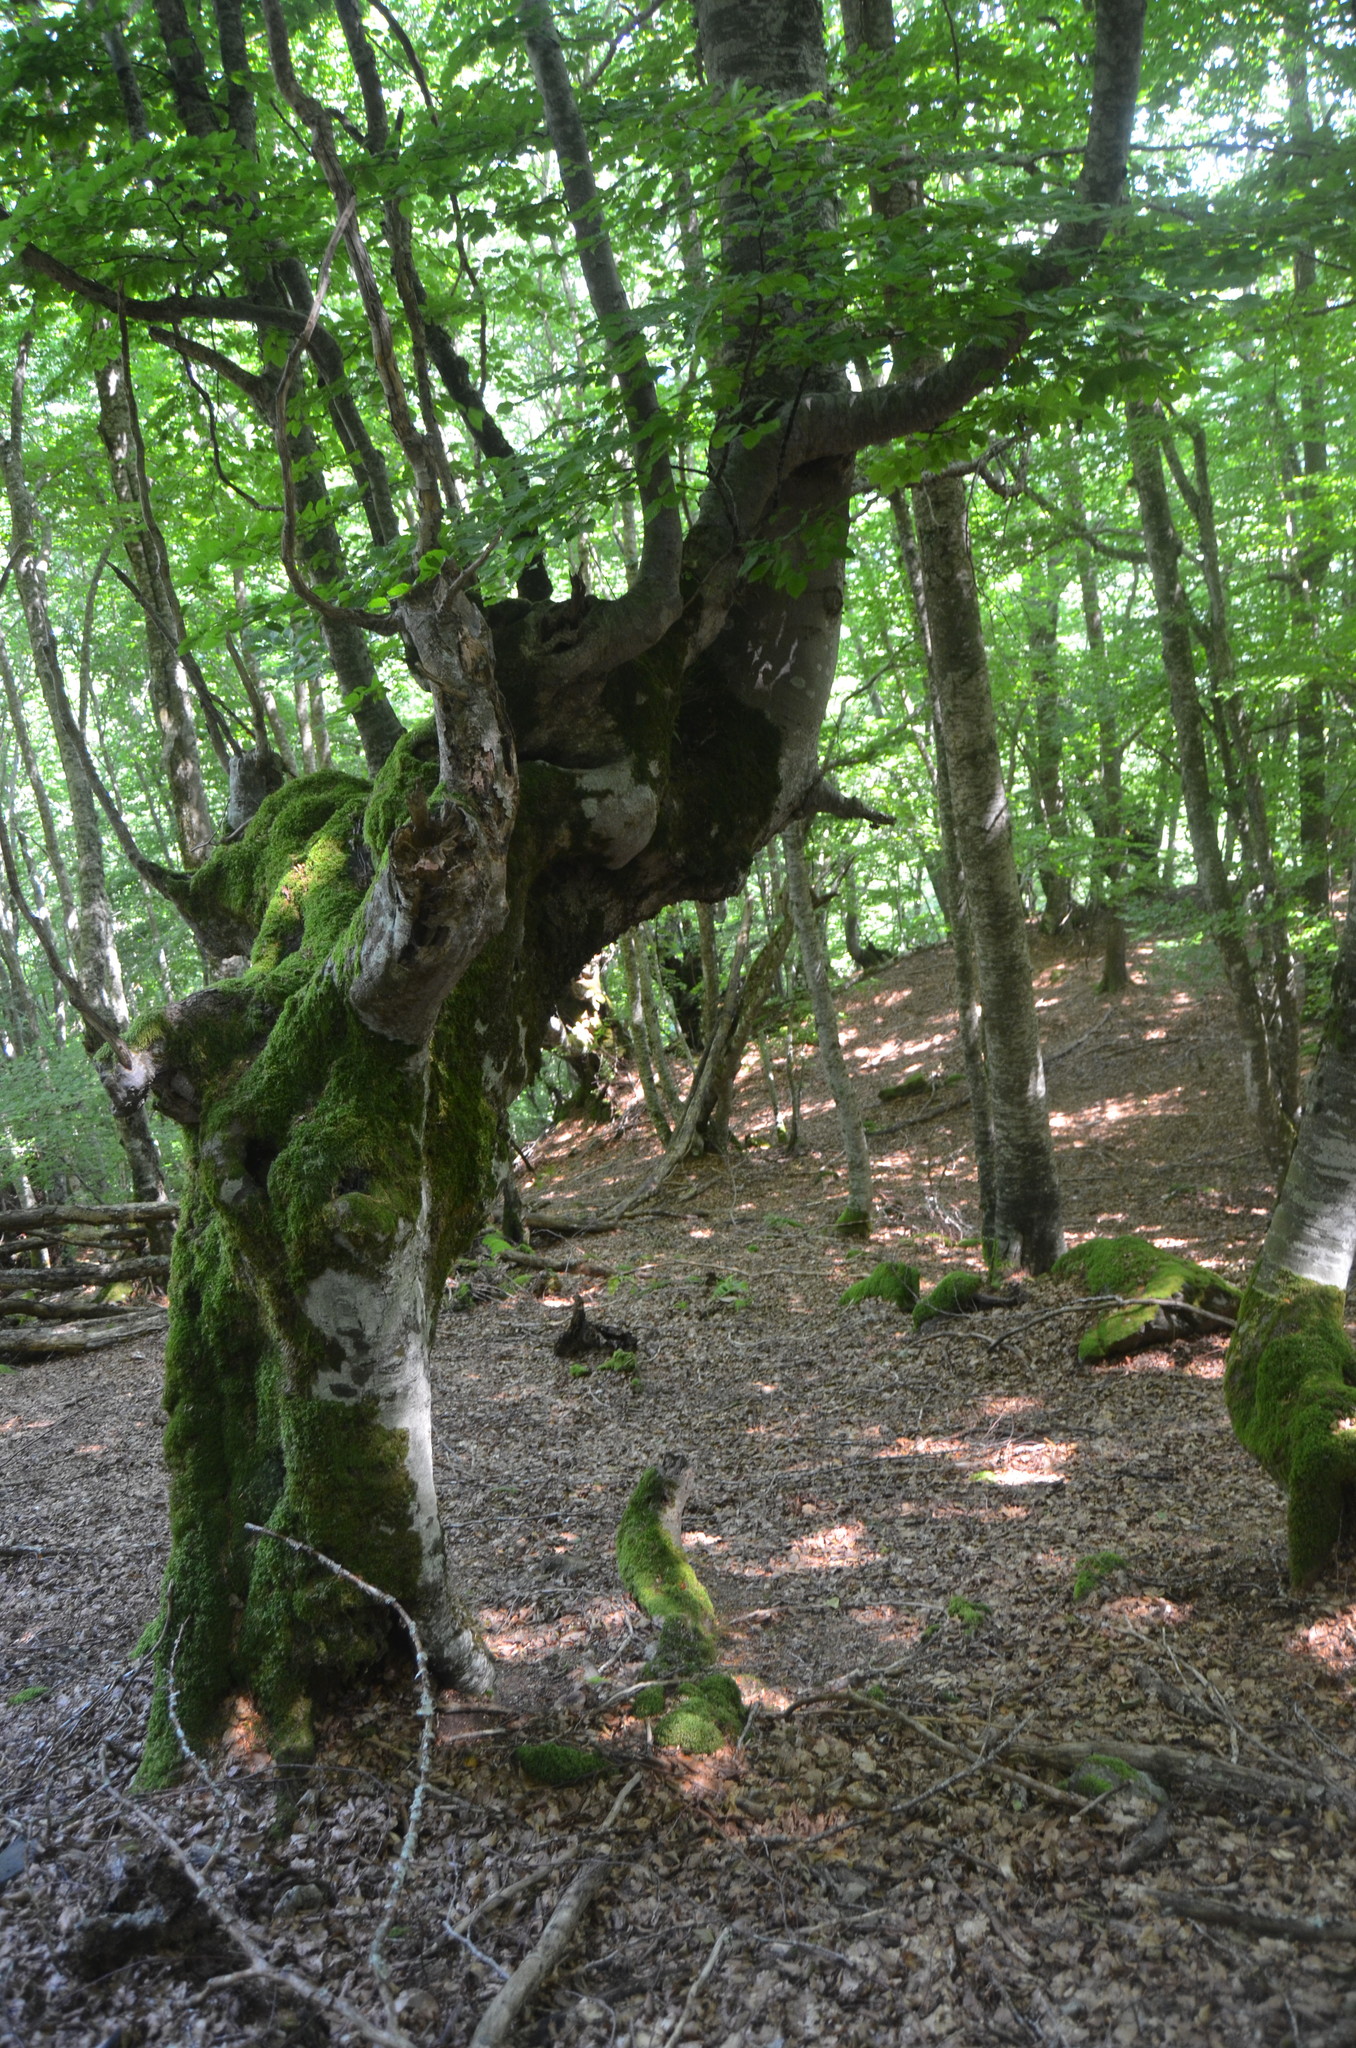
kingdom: Plantae
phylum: Tracheophyta
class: Magnoliopsida
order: Fagales
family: Fagaceae
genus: Fagus
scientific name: Fagus sylvatica
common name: Beech
